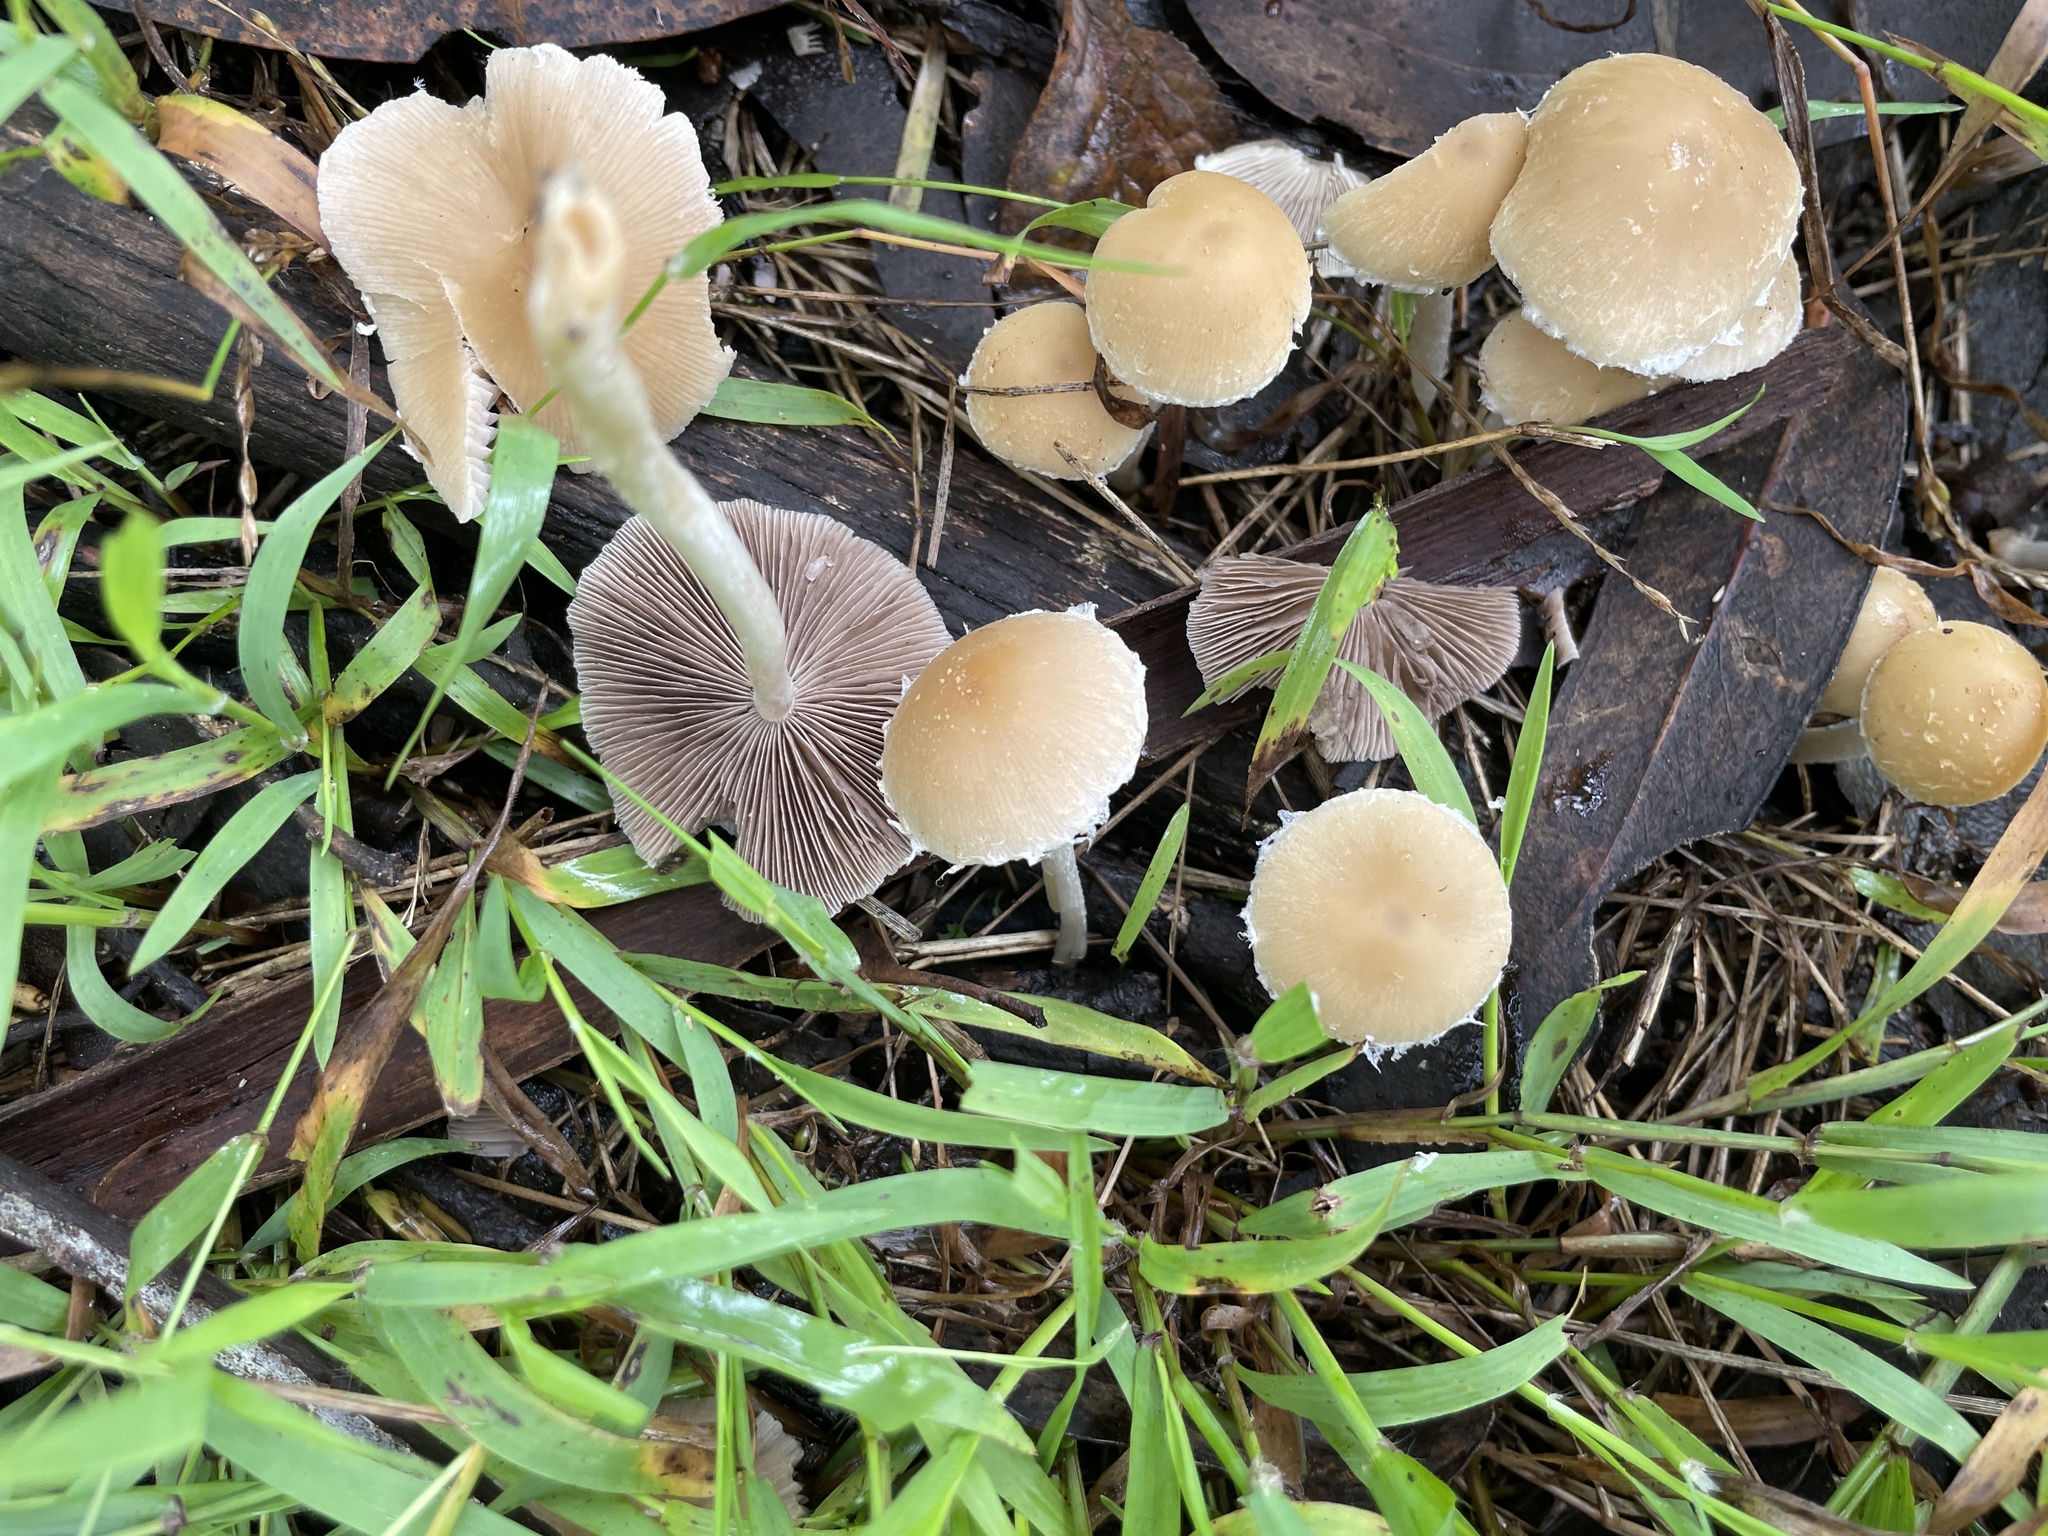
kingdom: Fungi
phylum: Basidiomycota
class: Agaricomycetes
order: Agaricales
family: Psathyrellaceae
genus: Candolleomyces
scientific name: Candolleomyces candolleanus
